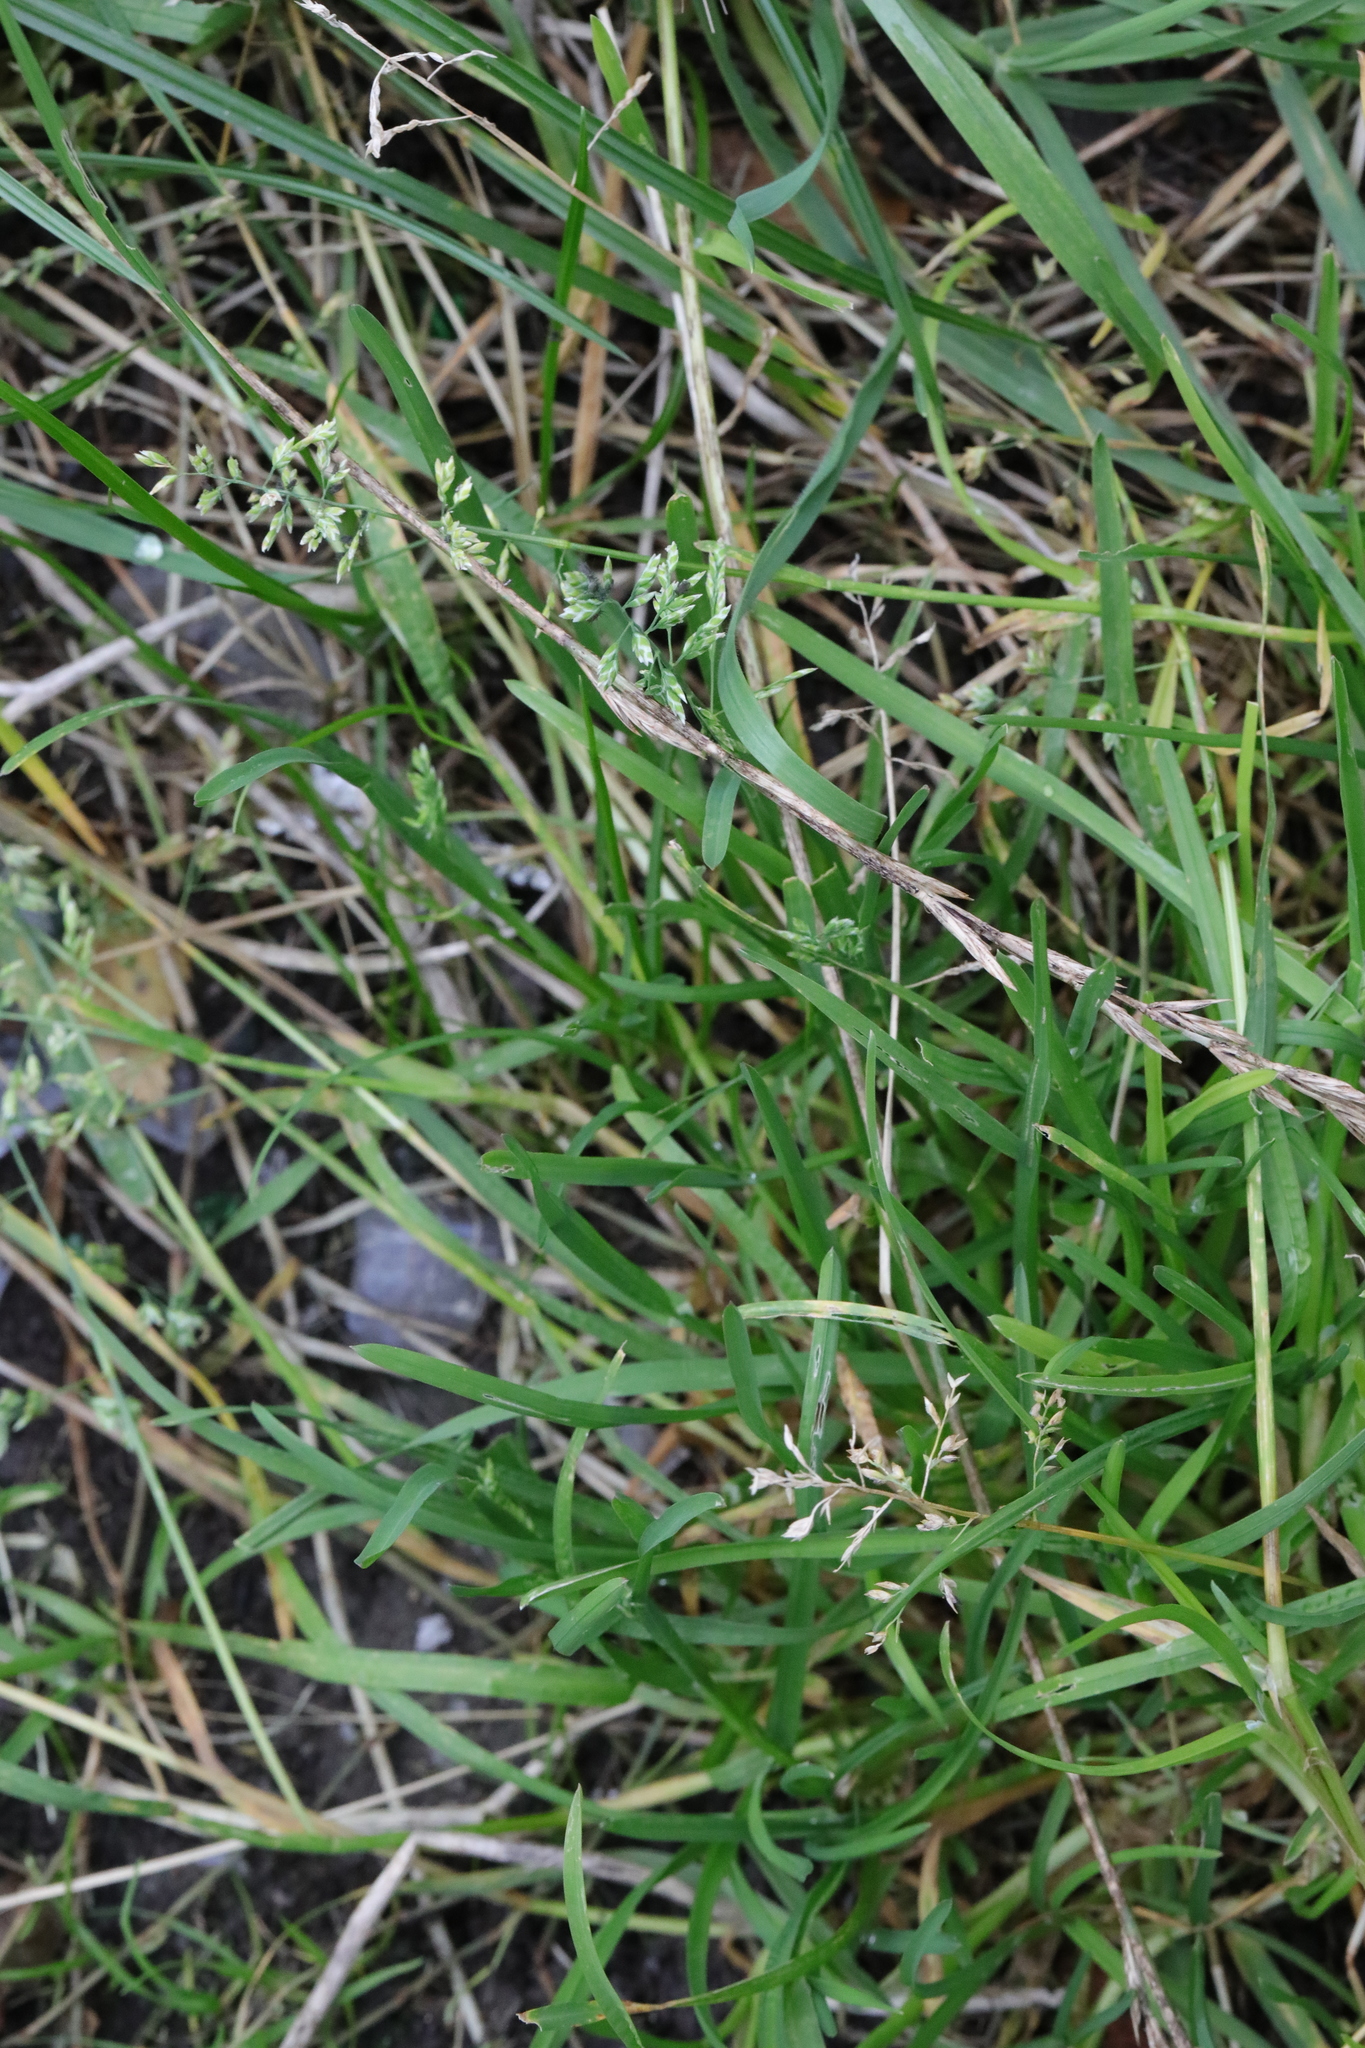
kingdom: Plantae
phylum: Tracheophyta
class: Liliopsida
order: Poales
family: Poaceae
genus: Poa
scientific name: Poa annua
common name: Annual bluegrass
